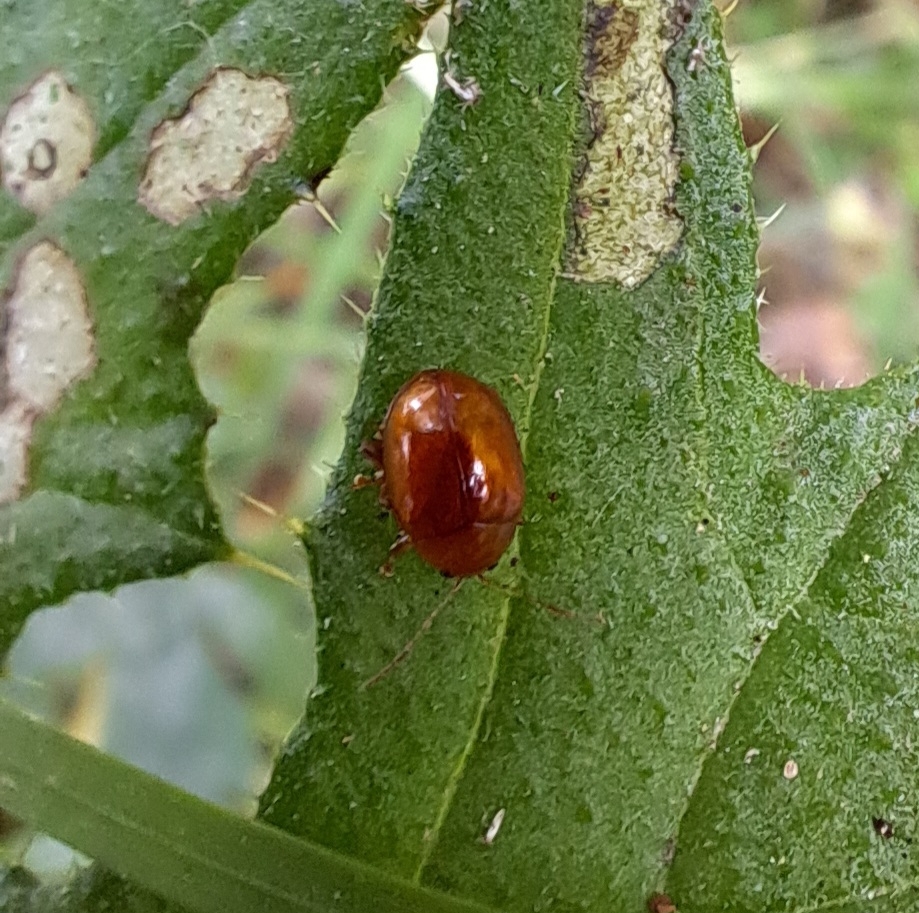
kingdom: Animalia
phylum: Arthropoda
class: Insecta
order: Coleoptera
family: Chrysomelidae
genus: Pistosia
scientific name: Pistosia testacea
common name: Leaf beetle
